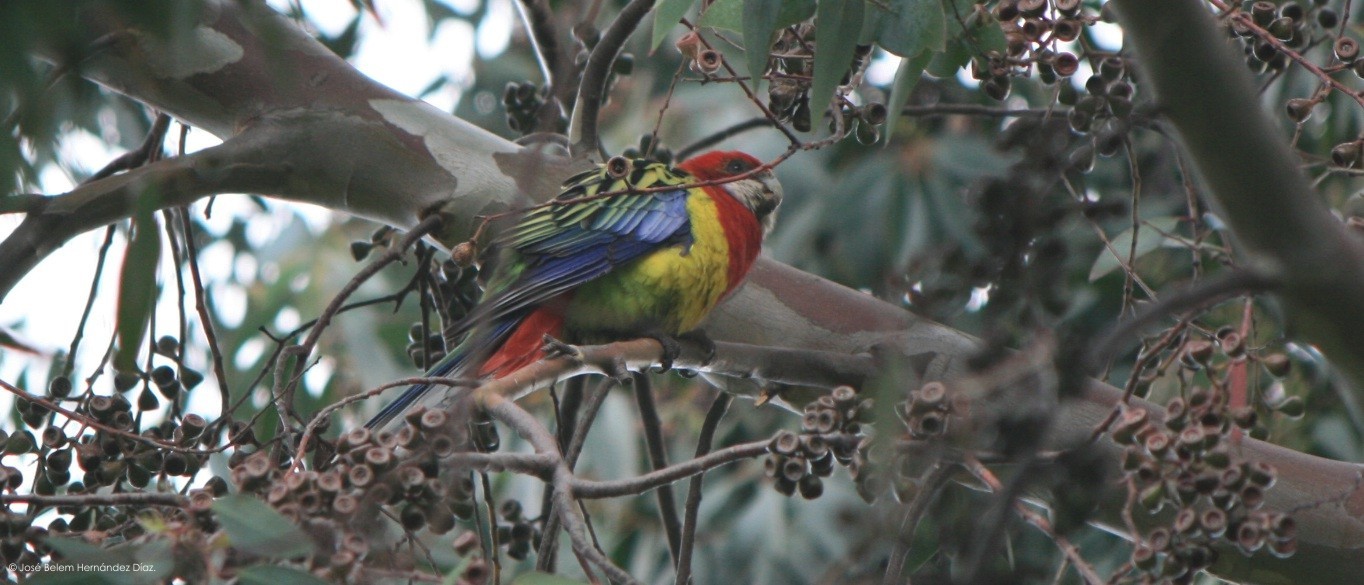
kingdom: Animalia
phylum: Chordata
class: Aves
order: Psittaciformes
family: Psittacidae
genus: Platycercus
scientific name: Platycercus eximius
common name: Eastern rosella
